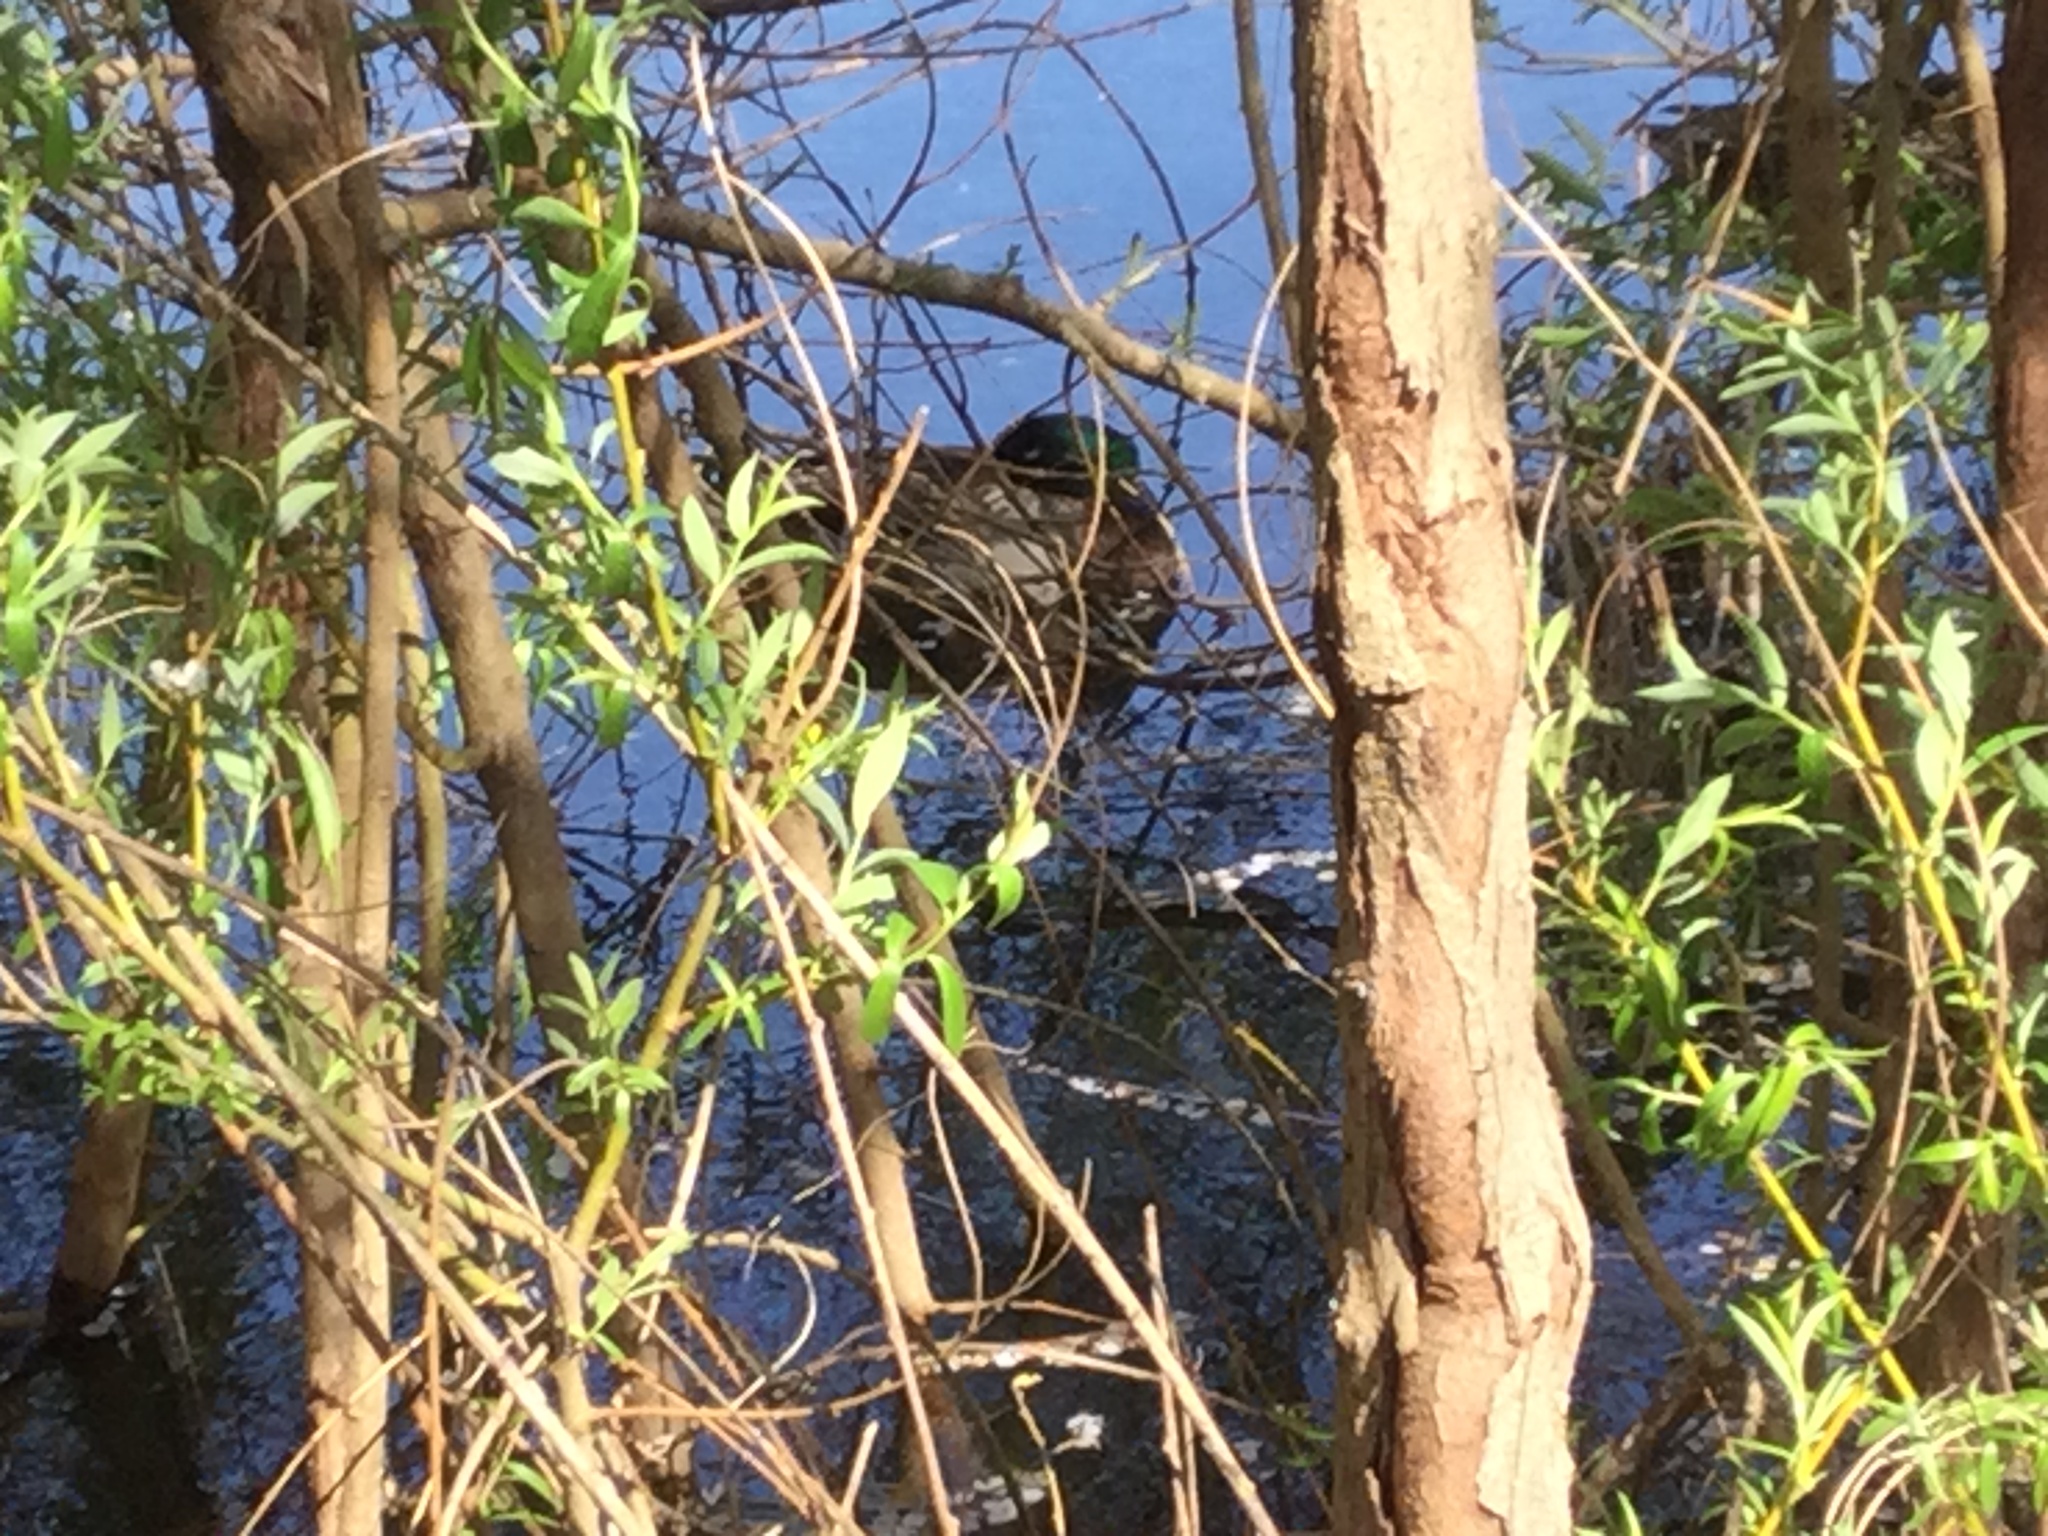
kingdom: Animalia
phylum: Chordata
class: Aves
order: Anseriformes
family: Anatidae
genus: Anas
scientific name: Anas platyrhynchos
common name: Mallard
